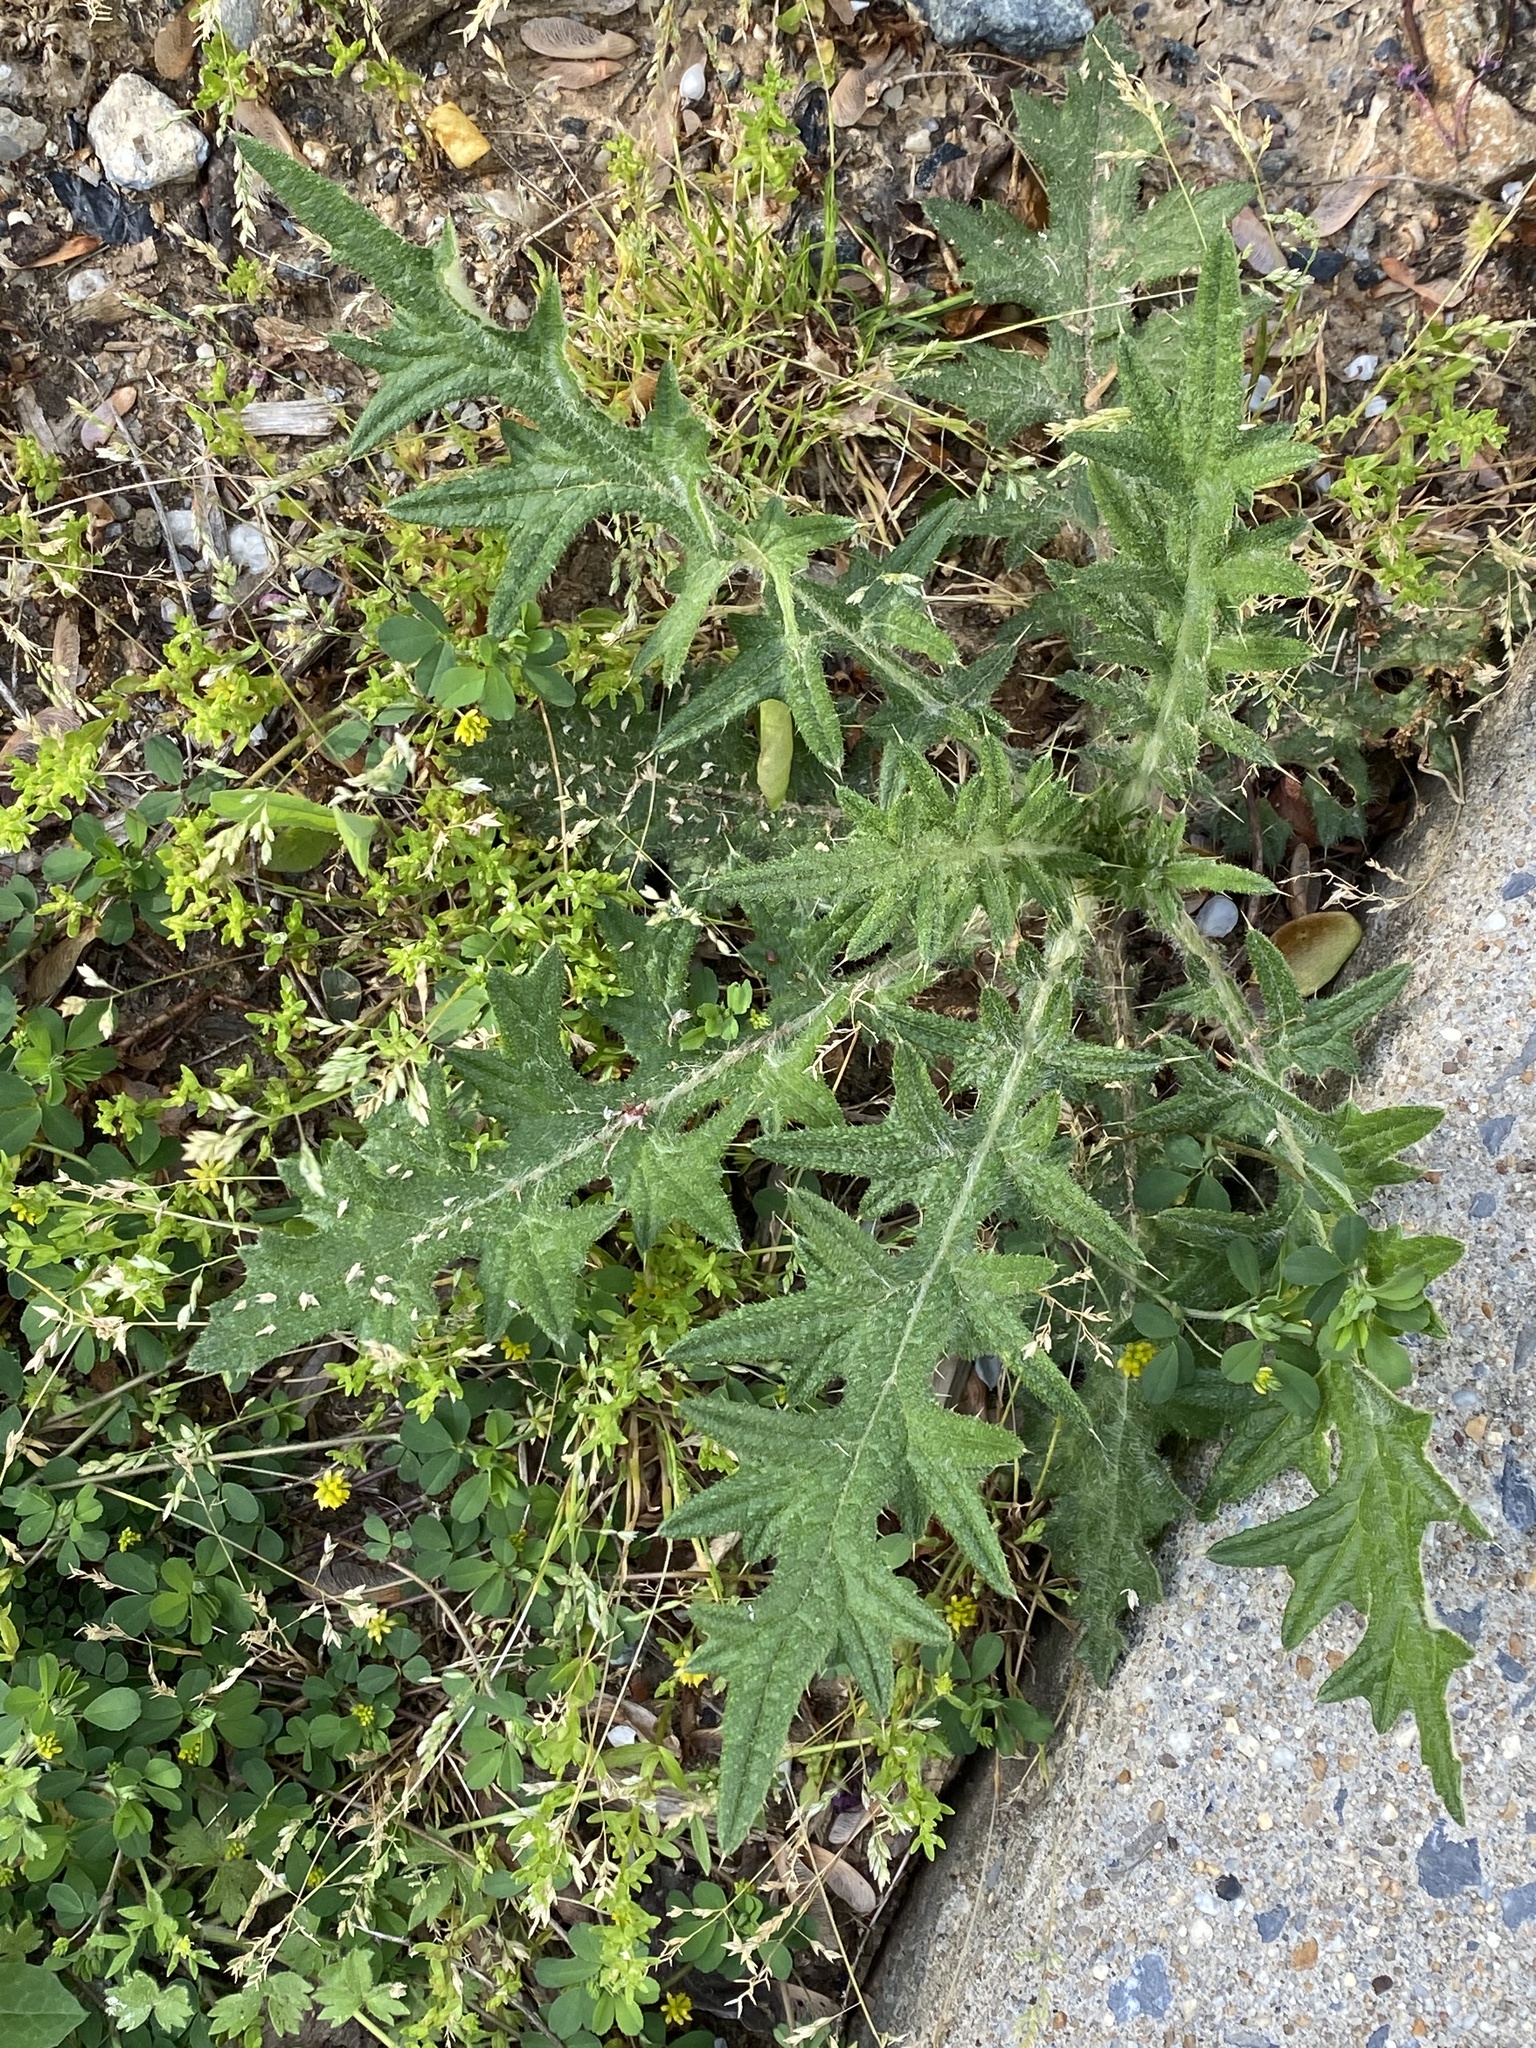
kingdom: Plantae
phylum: Tracheophyta
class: Magnoliopsida
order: Asterales
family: Asteraceae
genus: Cirsium
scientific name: Cirsium vulgare
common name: Bull thistle
